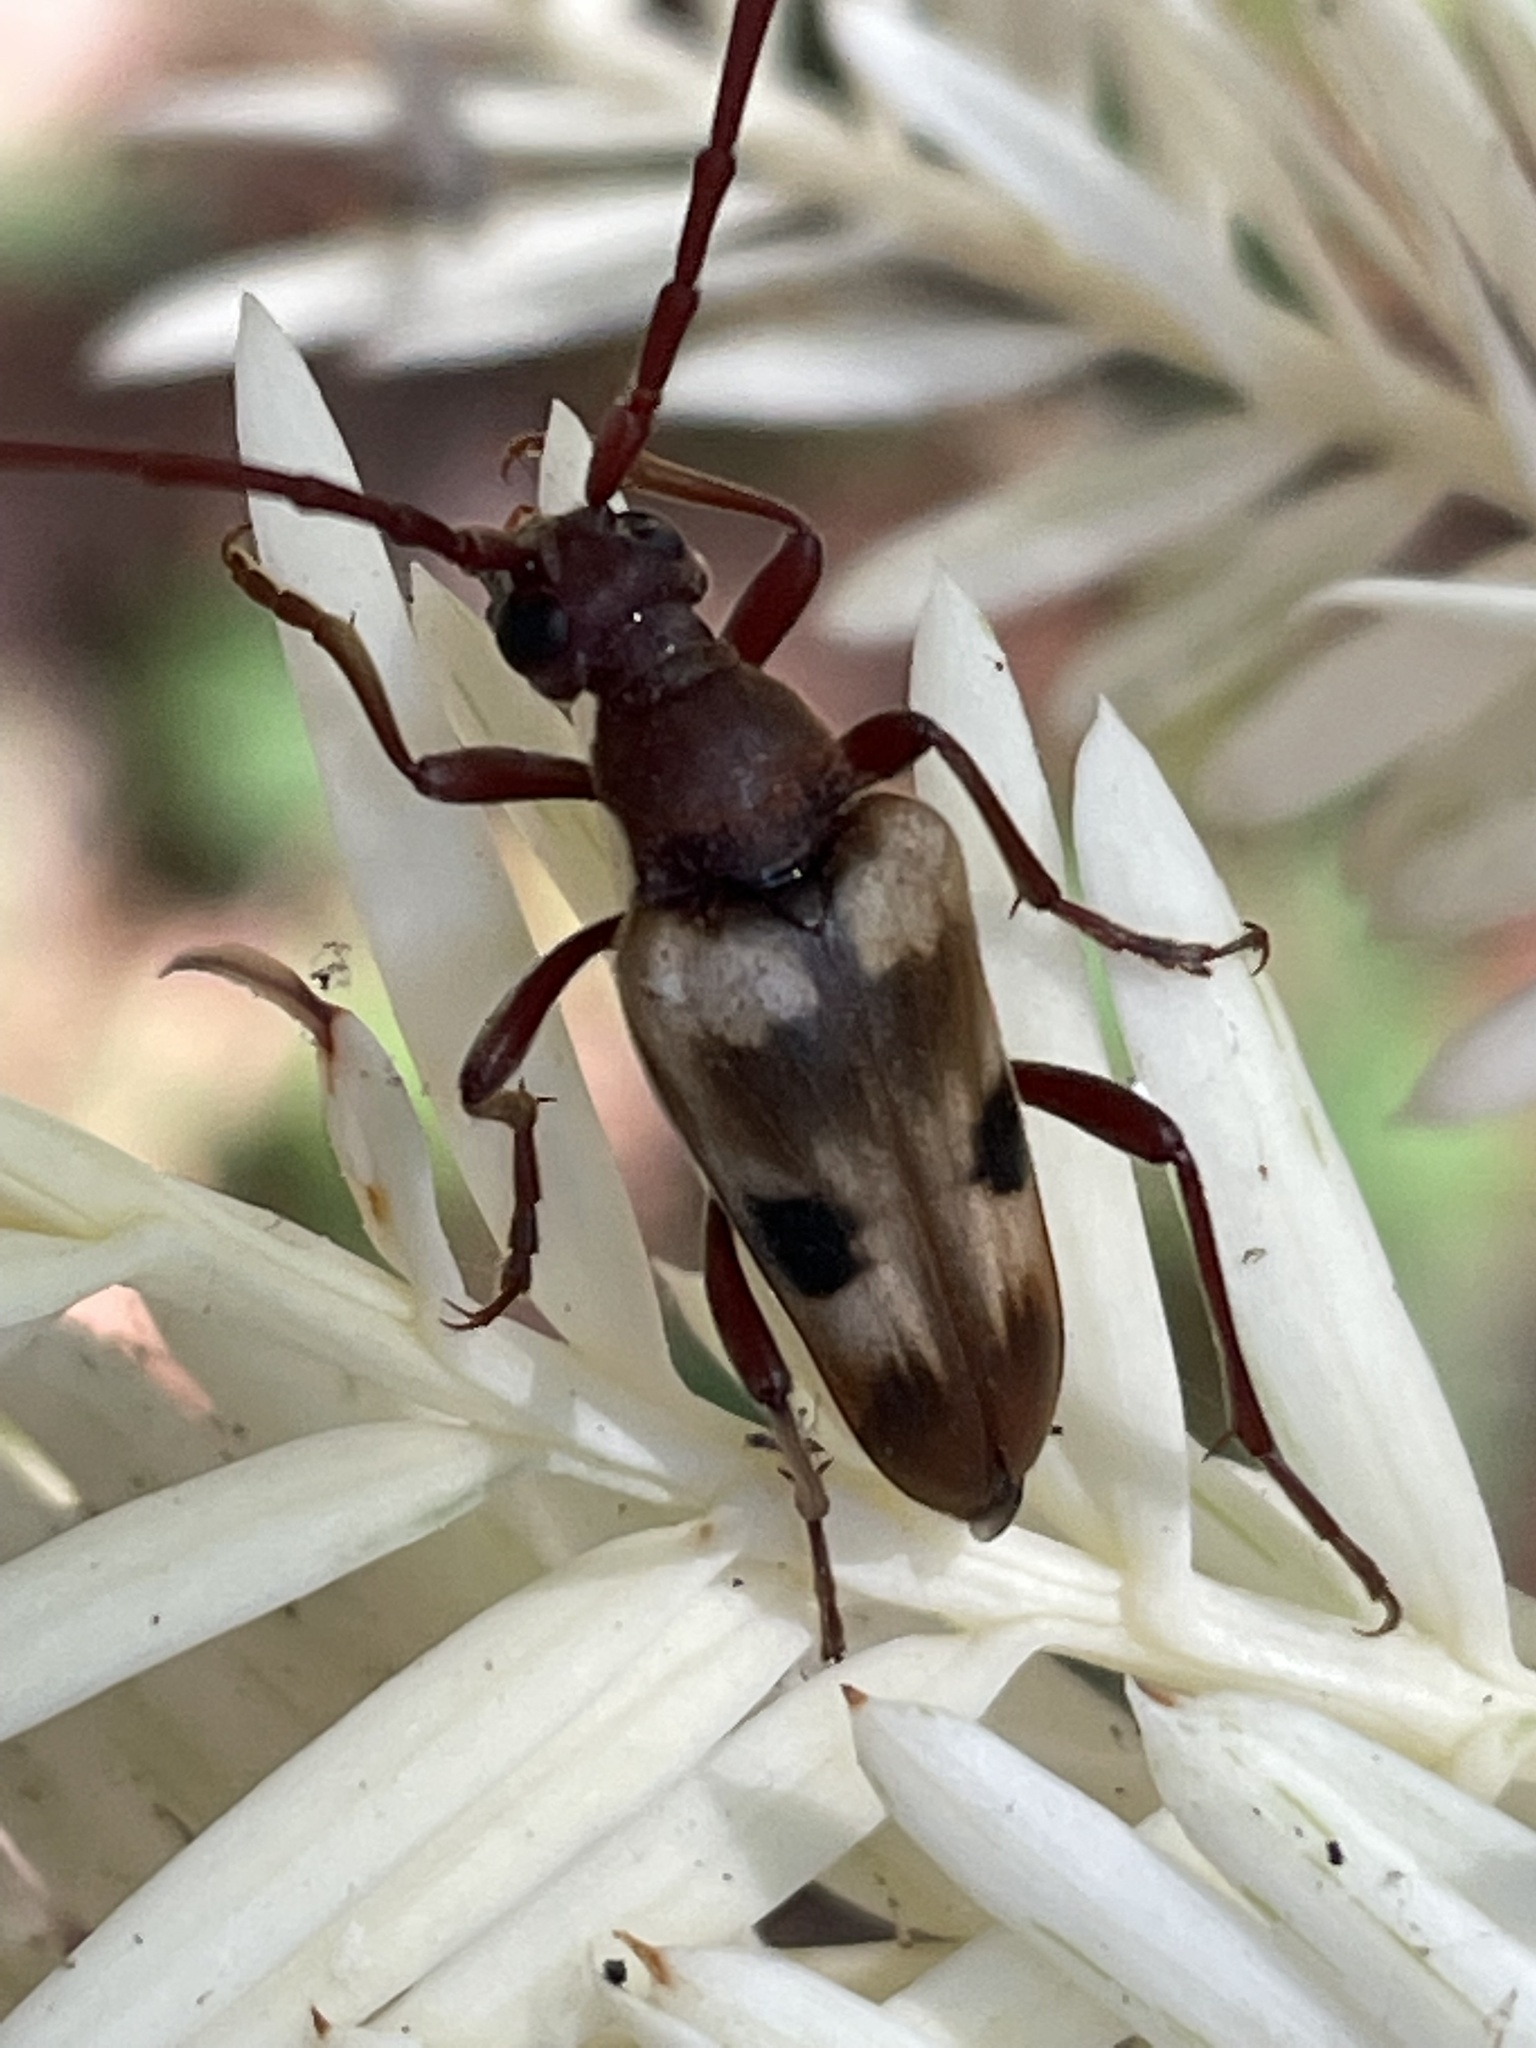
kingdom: Animalia
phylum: Arthropoda
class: Insecta
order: Coleoptera
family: Cerambycidae
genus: Dorcasina
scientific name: Dorcasina matthewsii
